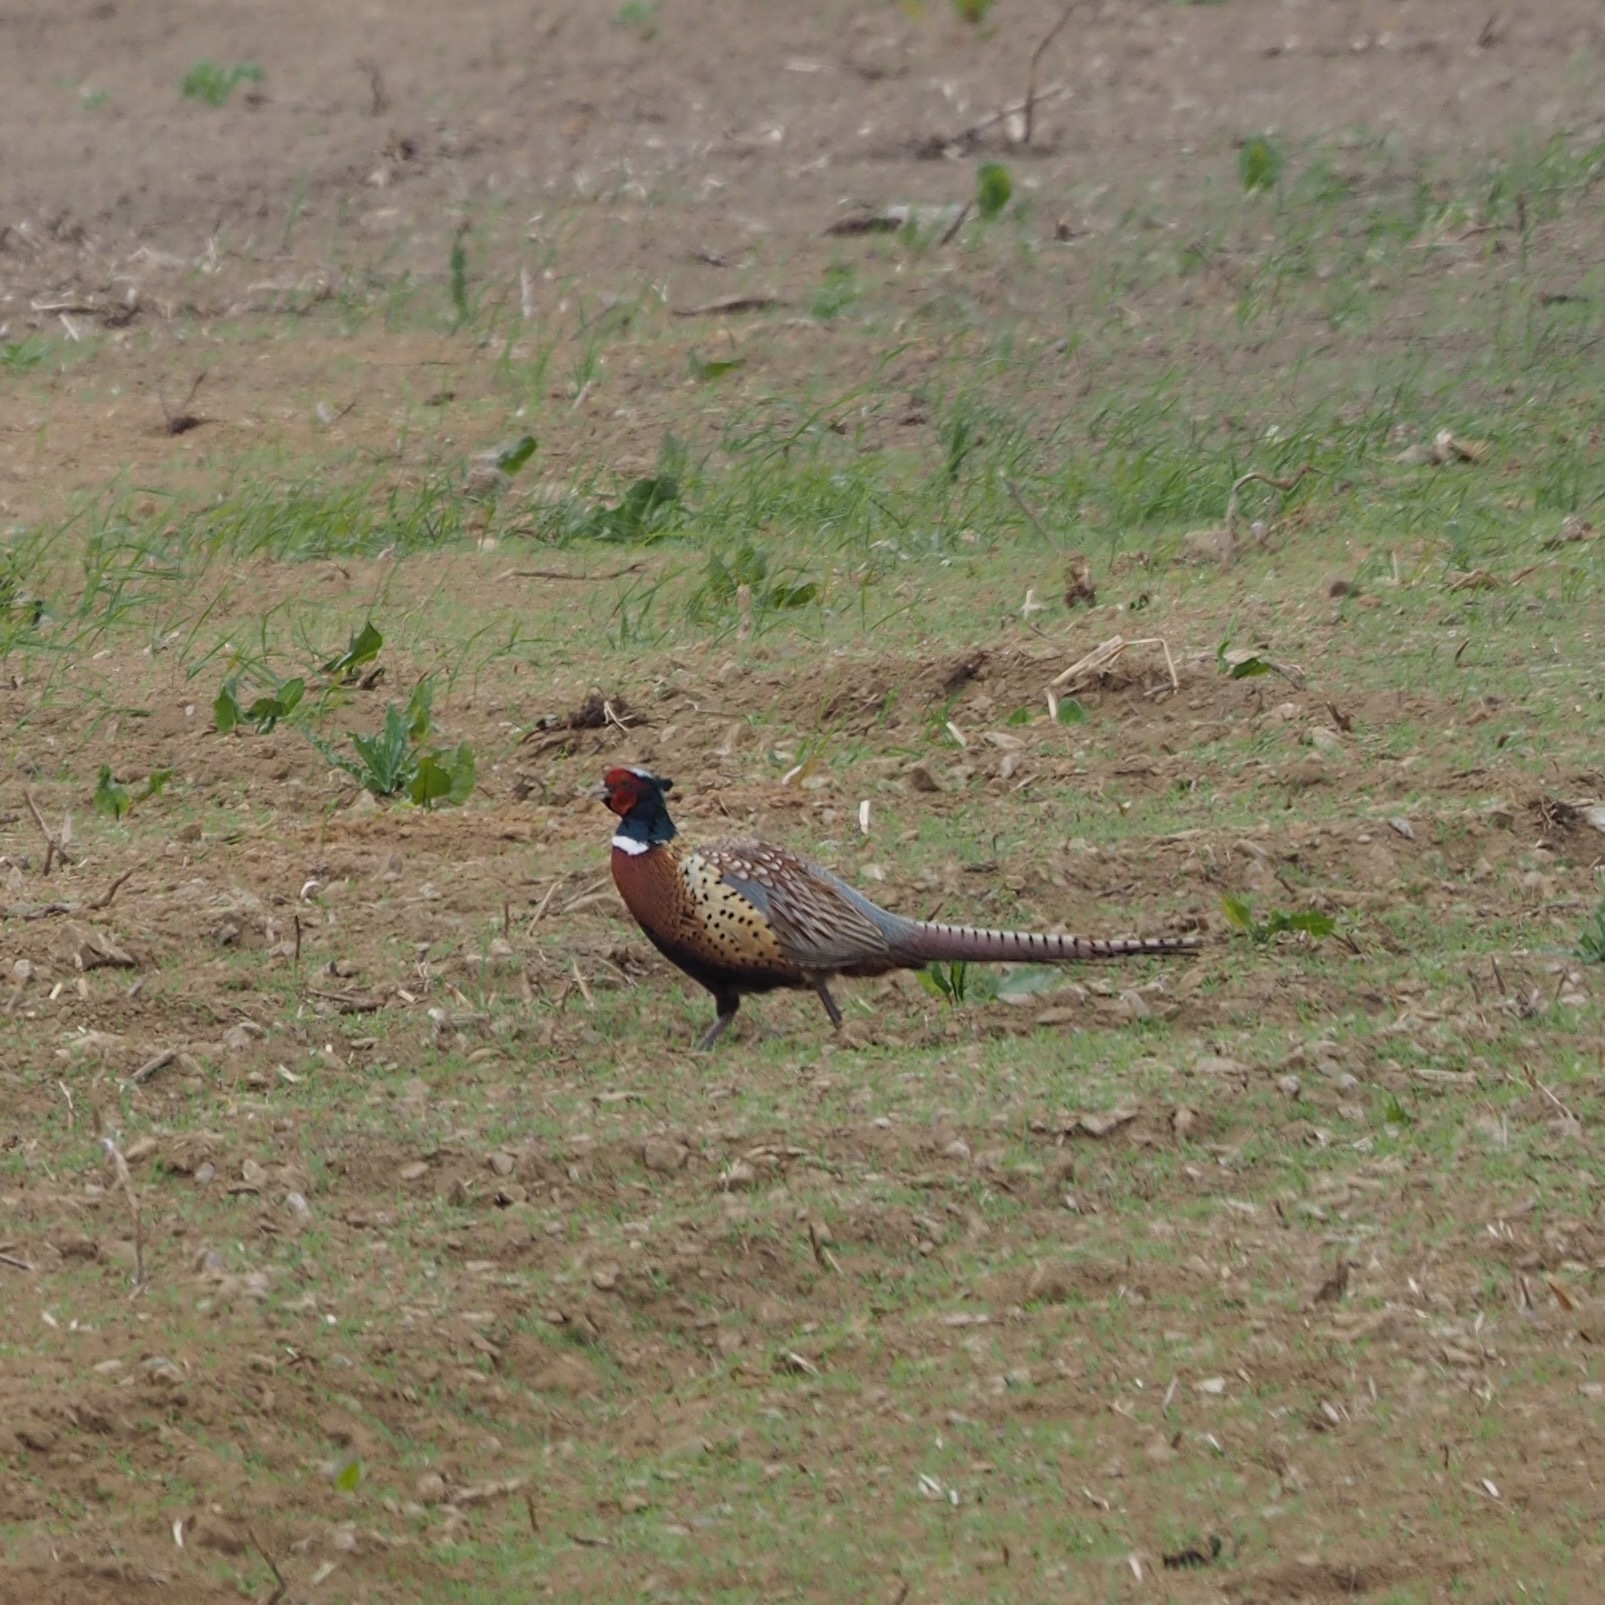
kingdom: Animalia
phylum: Chordata
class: Aves
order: Galliformes
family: Phasianidae
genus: Phasianus
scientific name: Phasianus colchicus
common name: Common pheasant
